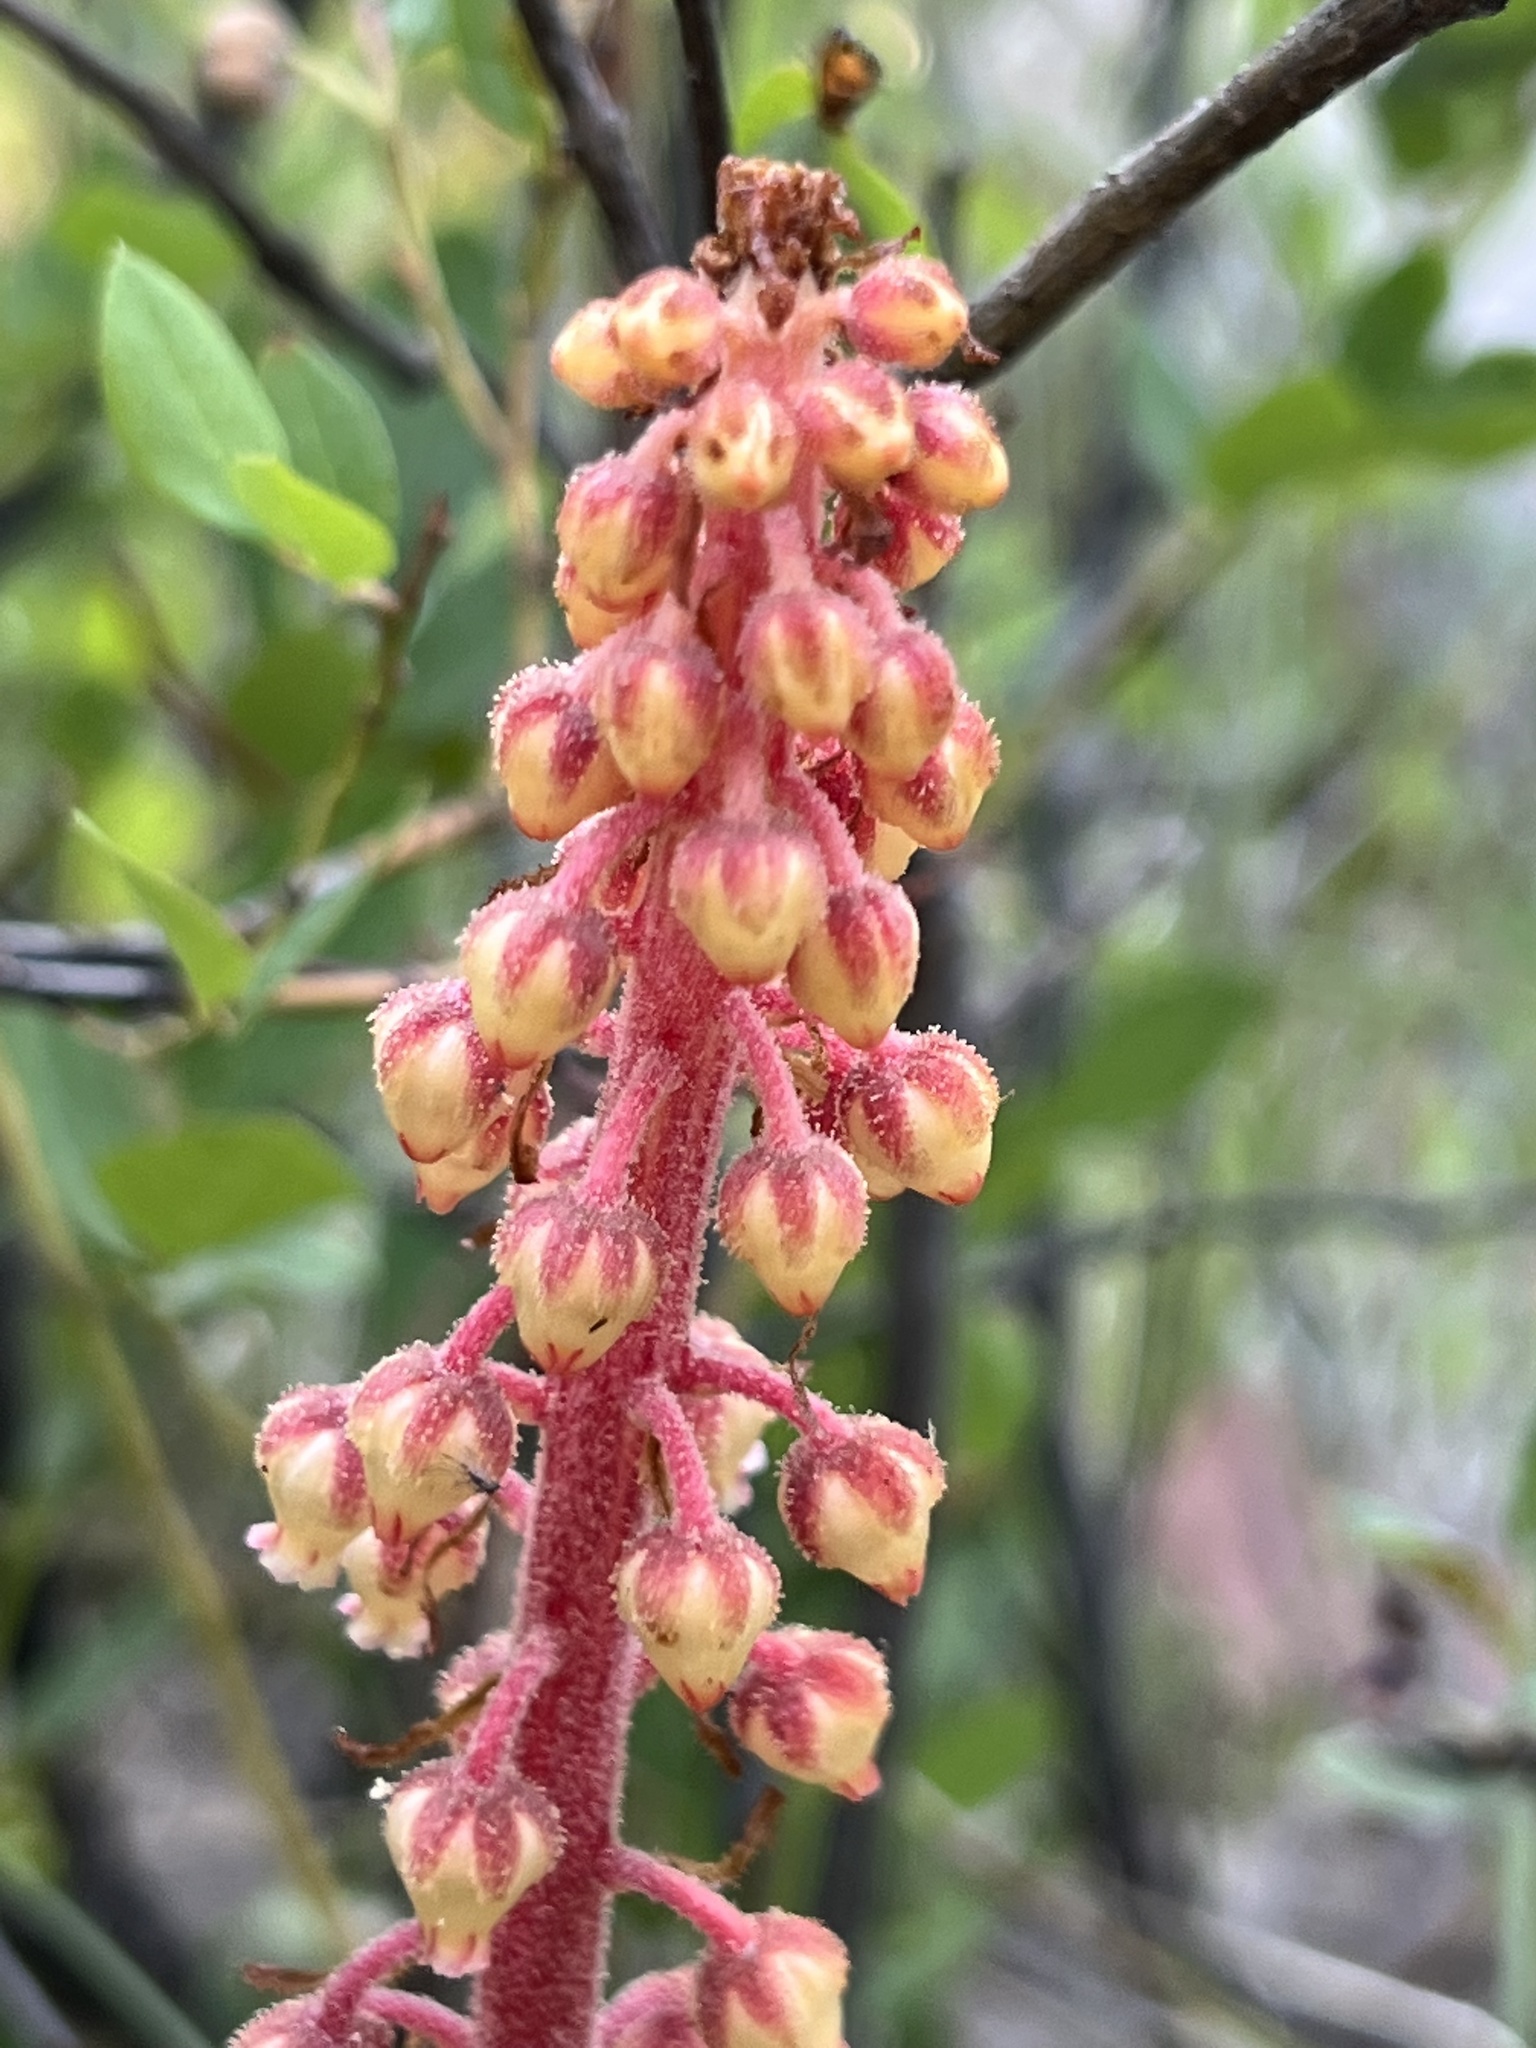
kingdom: Plantae
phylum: Tracheophyta
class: Magnoliopsida
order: Ericales
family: Ericaceae
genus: Pterospora
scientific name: Pterospora andromedea
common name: Giant bird's-nest
